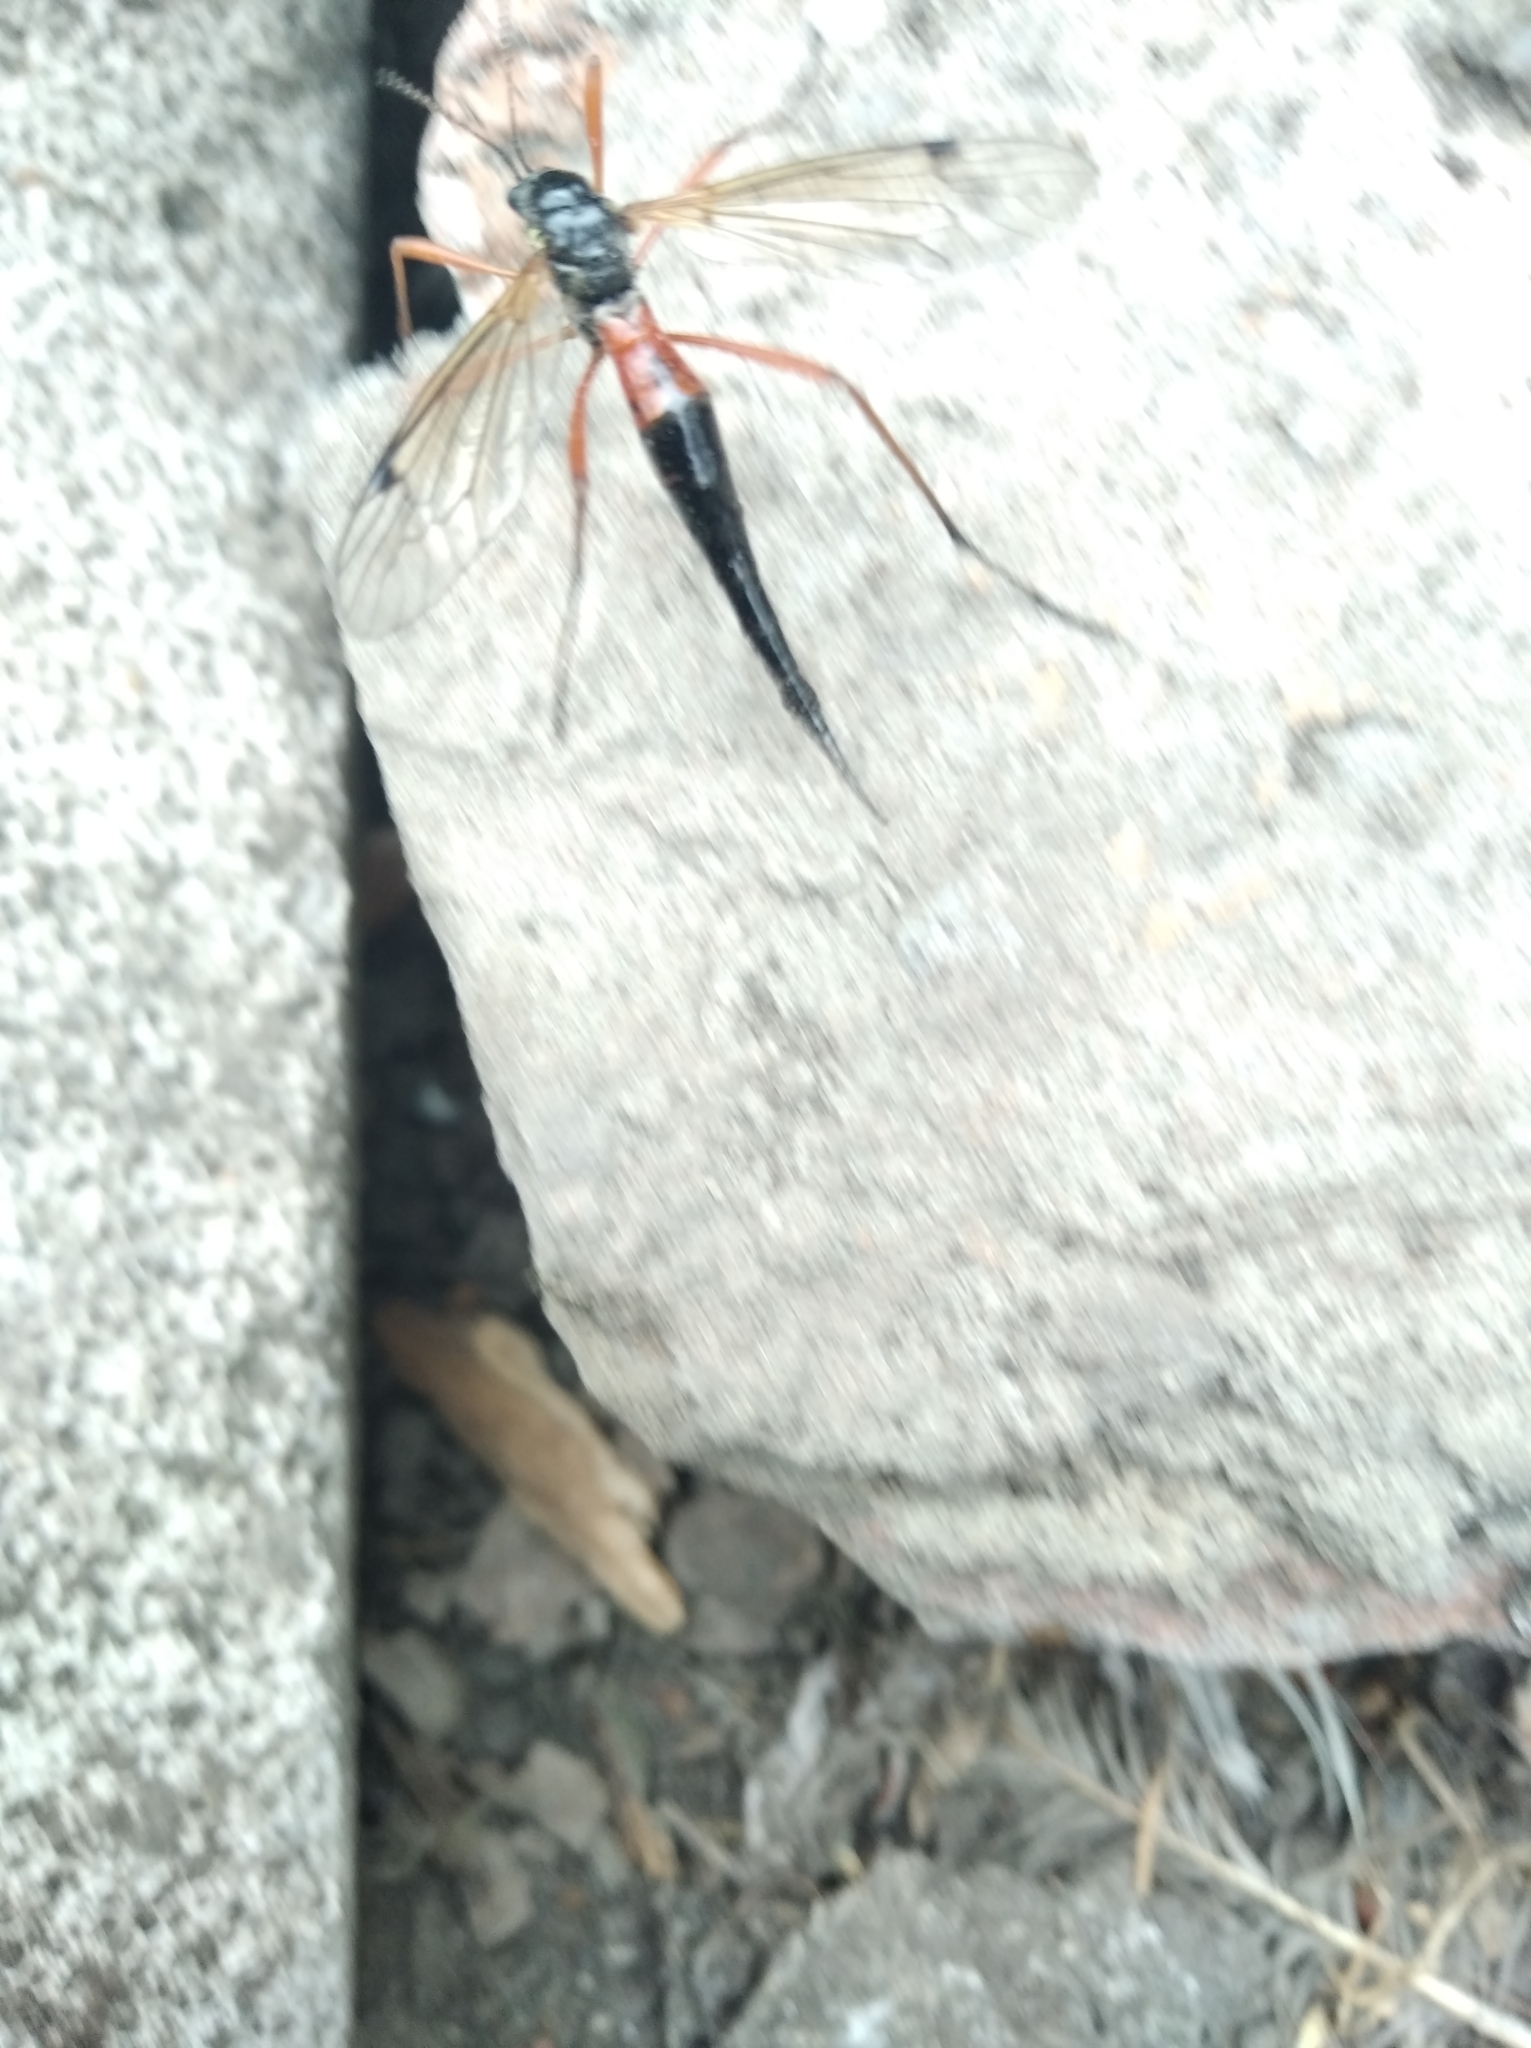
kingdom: Animalia
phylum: Arthropoda
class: Insecta
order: Diptera
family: Tipulidae
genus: Tanyptera
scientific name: Tanyptera atrata
